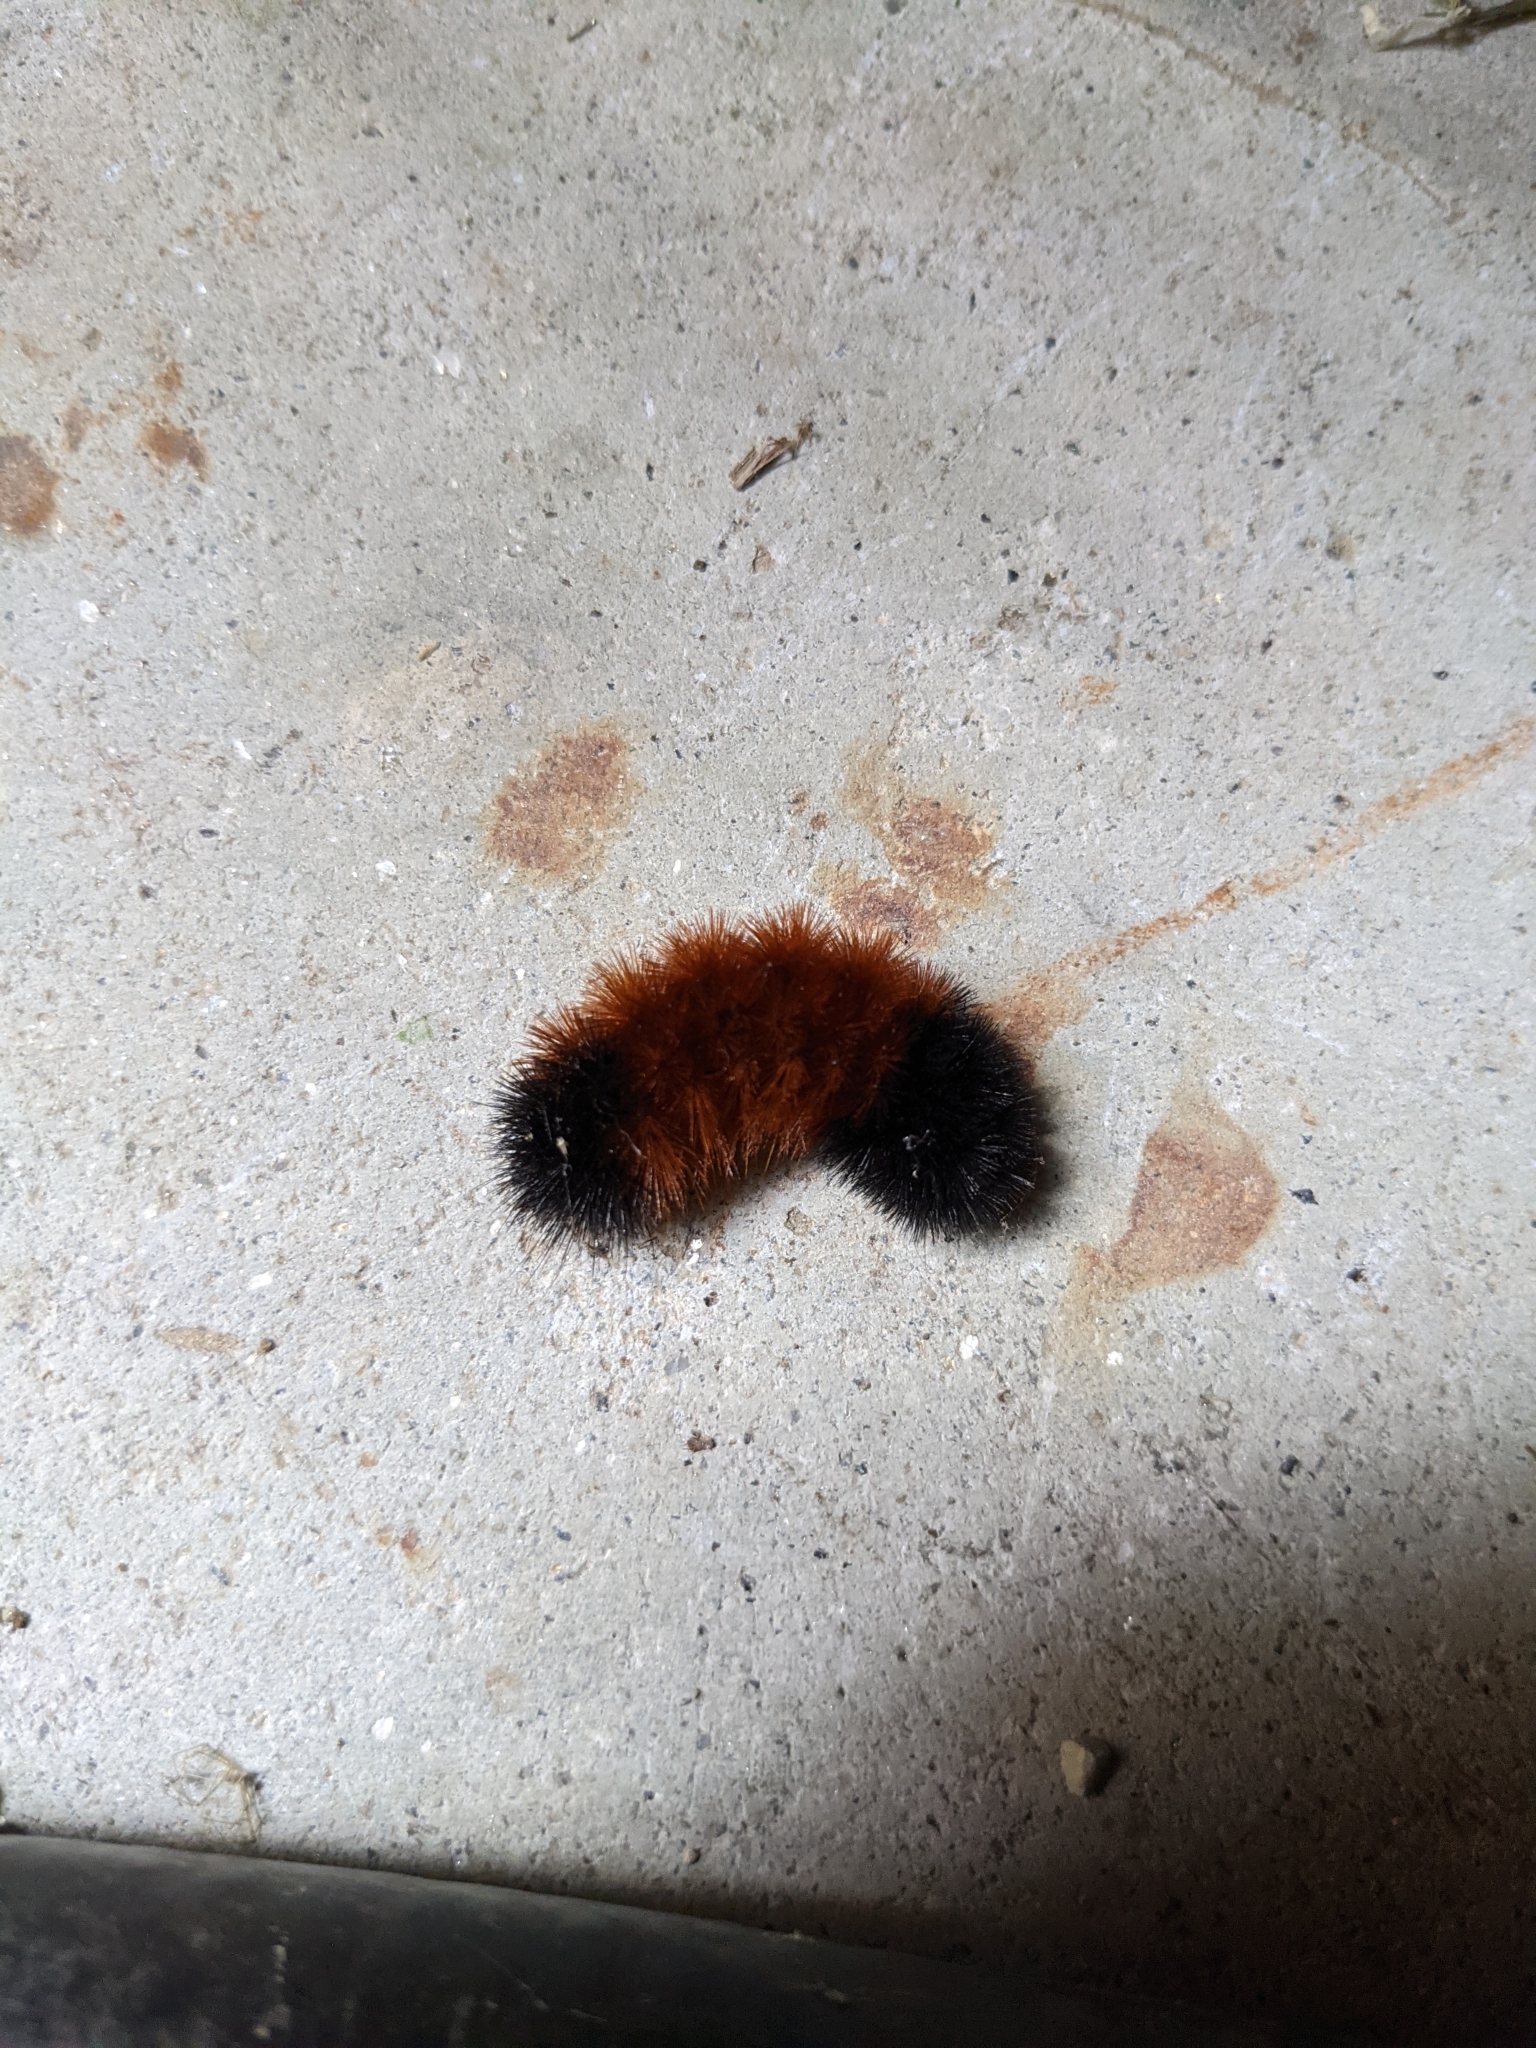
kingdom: Animalia
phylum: Arthropoda
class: Insecta
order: Lepidoptera
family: Erebidae
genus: Pyrrharctia
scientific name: Pyrrharctia isabella
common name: Isabella tiger moth
